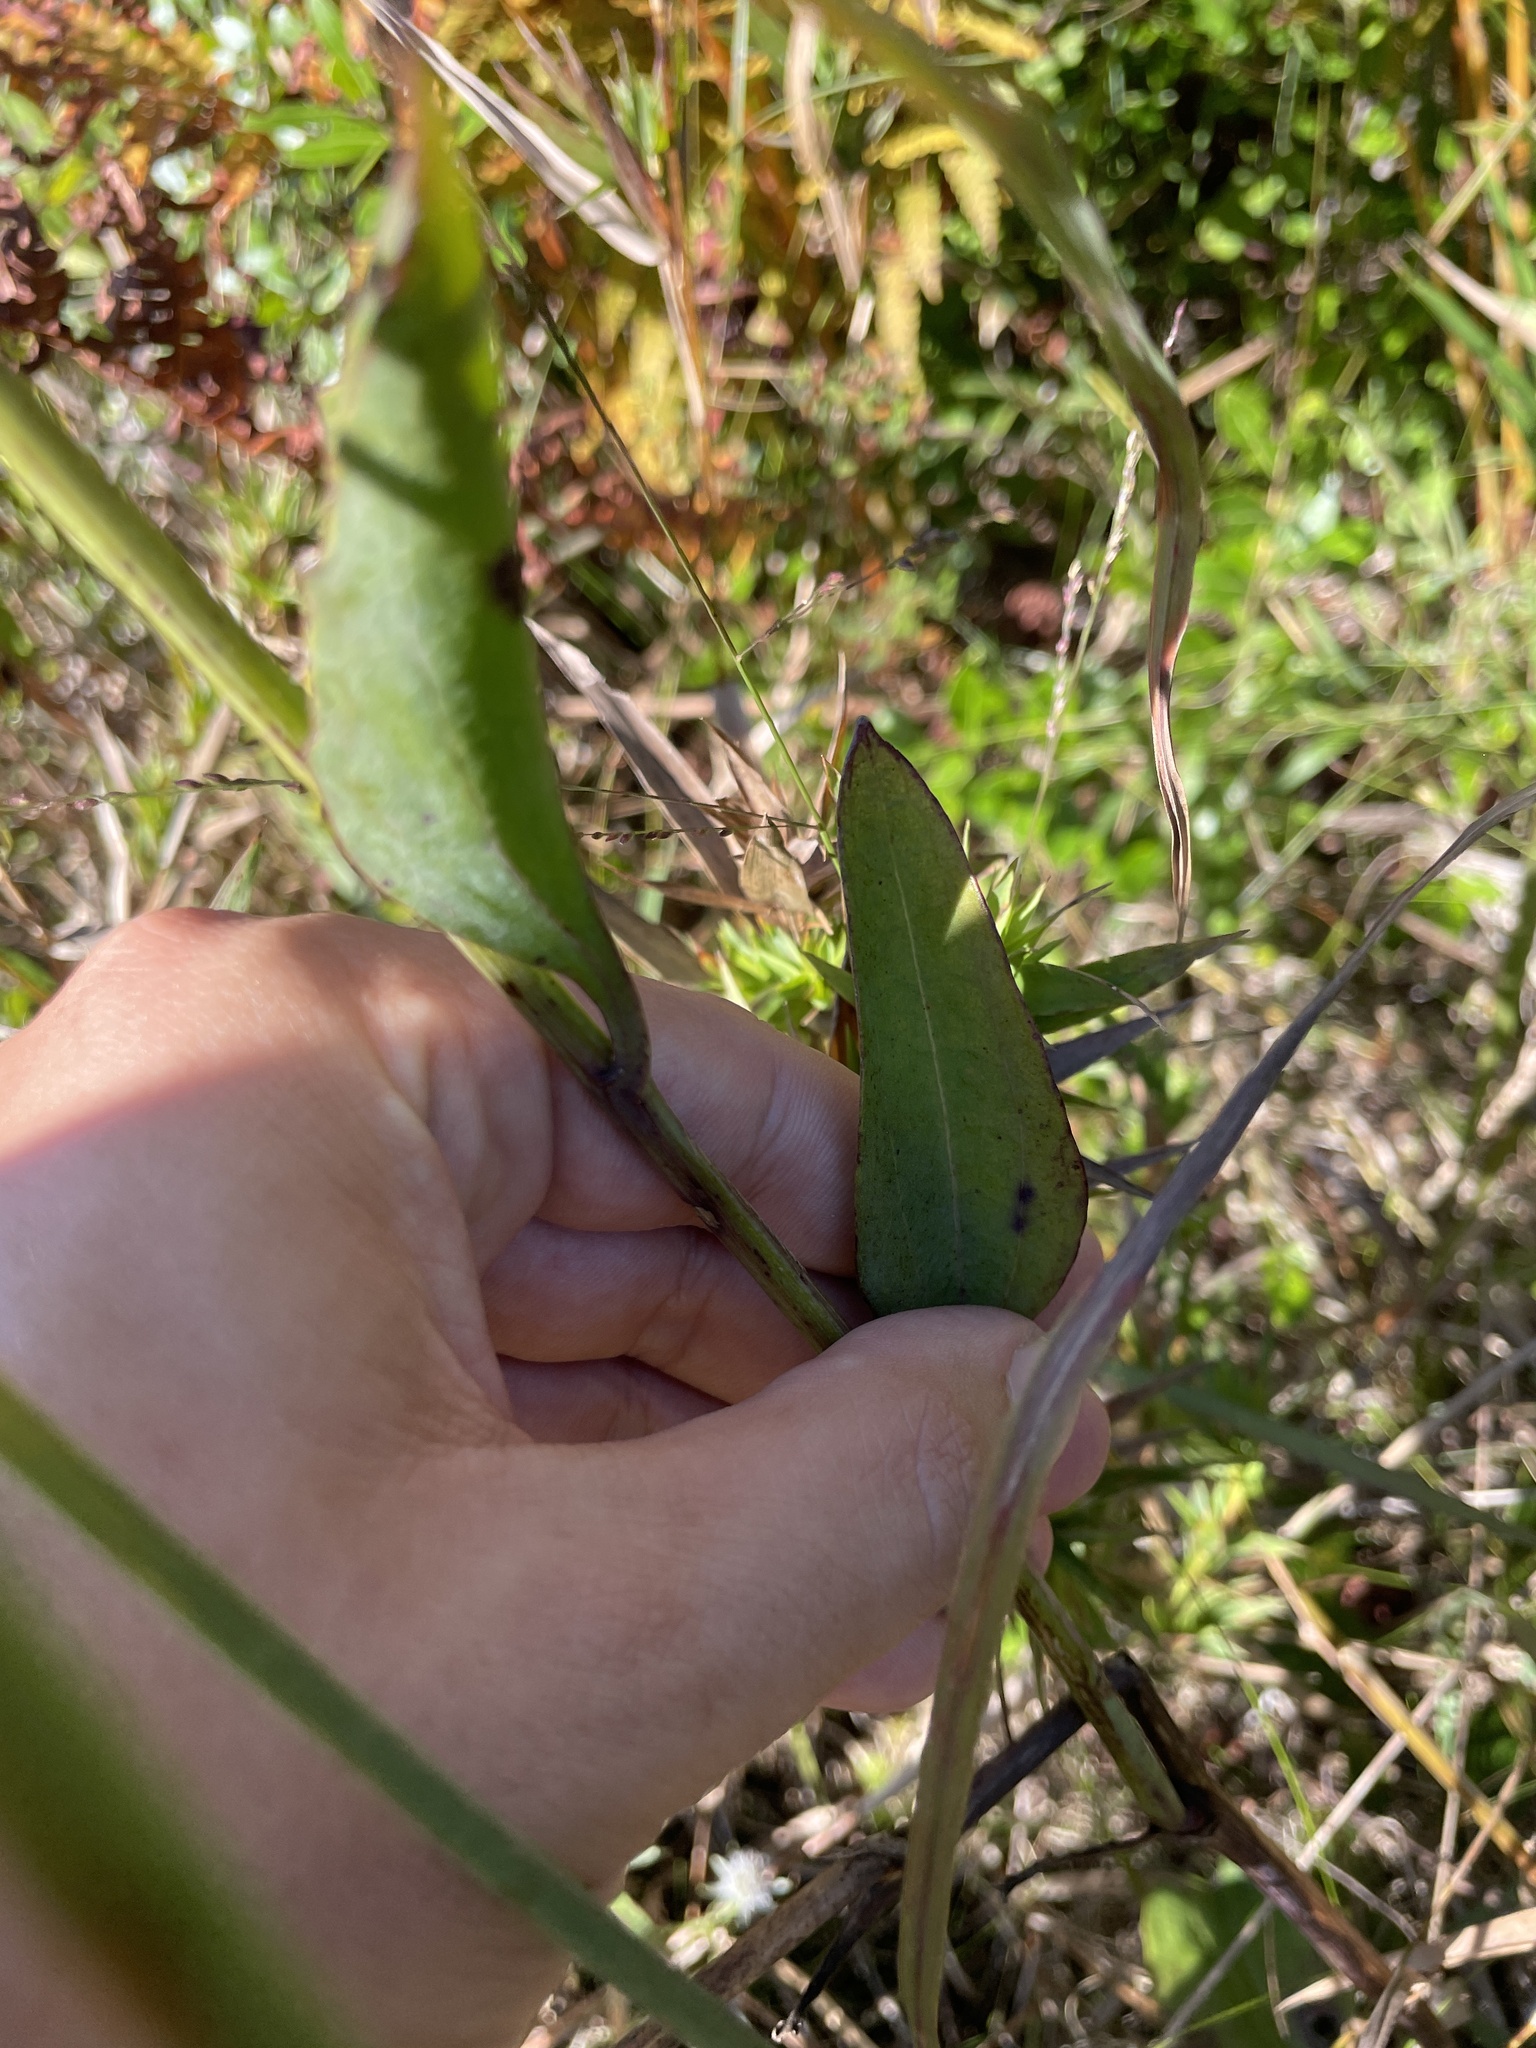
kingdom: Plantae
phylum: Tracheophyta
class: Magnoliopsida
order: Asterales
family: Asteraceae
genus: Arnoglossum
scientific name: Arnoglossum ovatum
